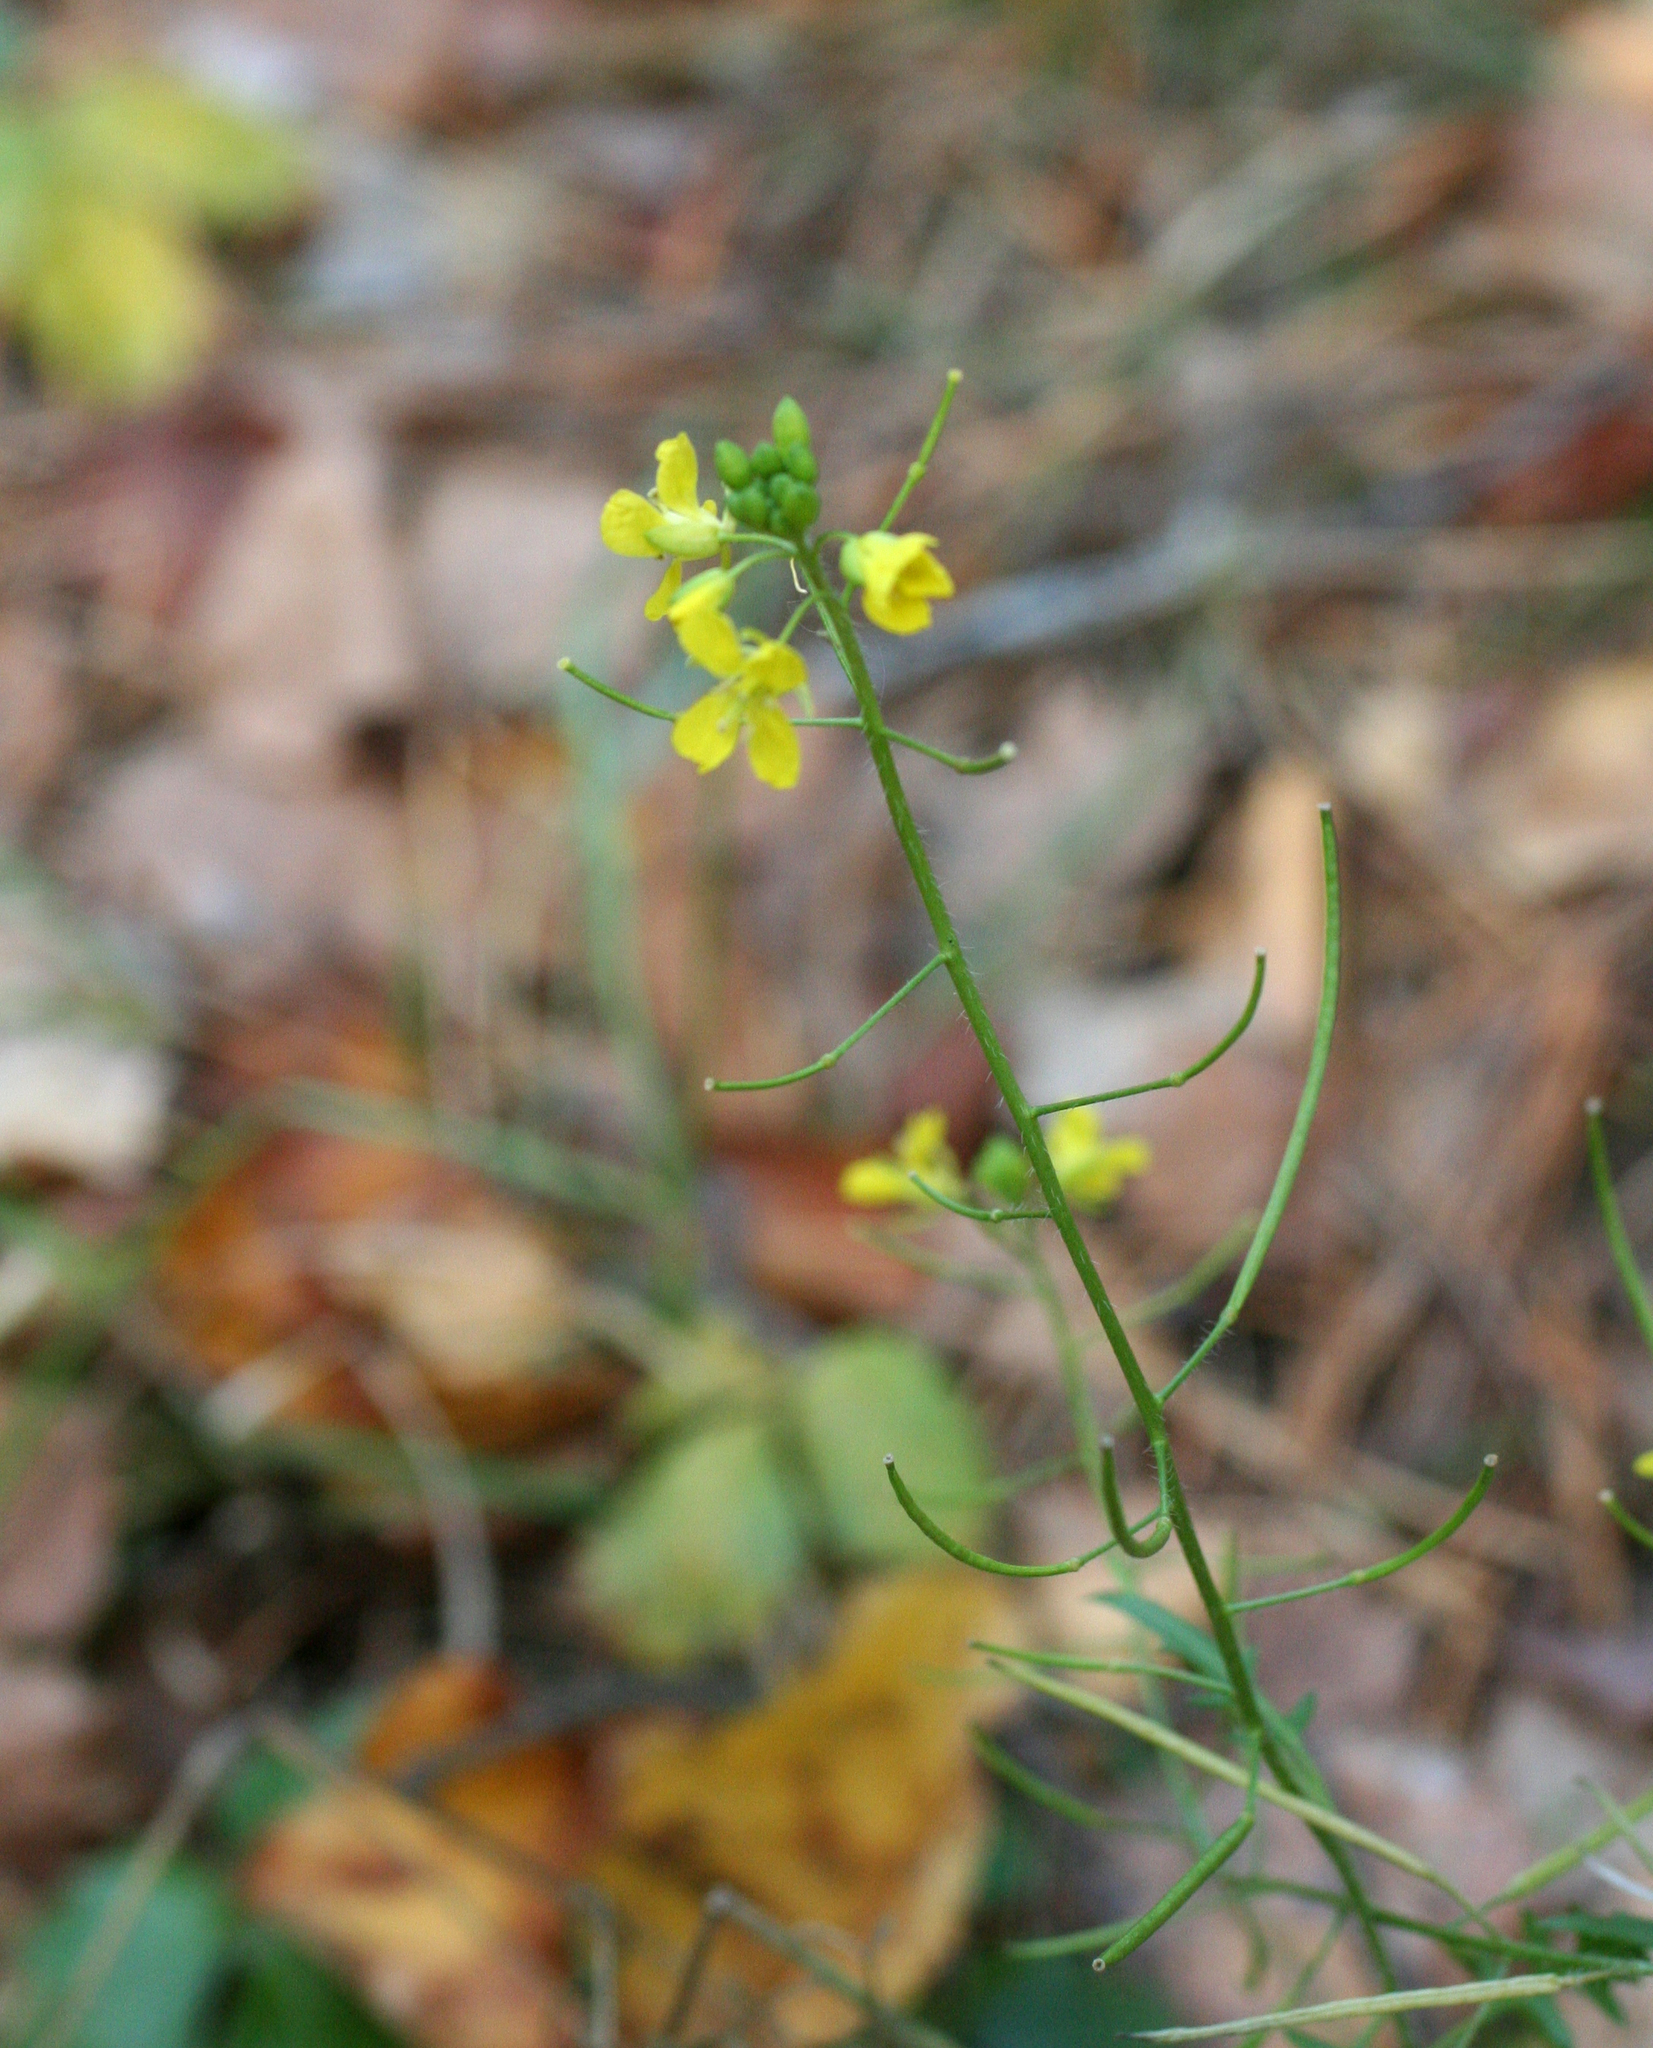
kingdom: Plantae
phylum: Tracheophyta
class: Magnoliopsida
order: Brassicales
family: Brassicaceae
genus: Sisymbrium
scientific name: Sisymbrium loeselii
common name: False london-rocket
